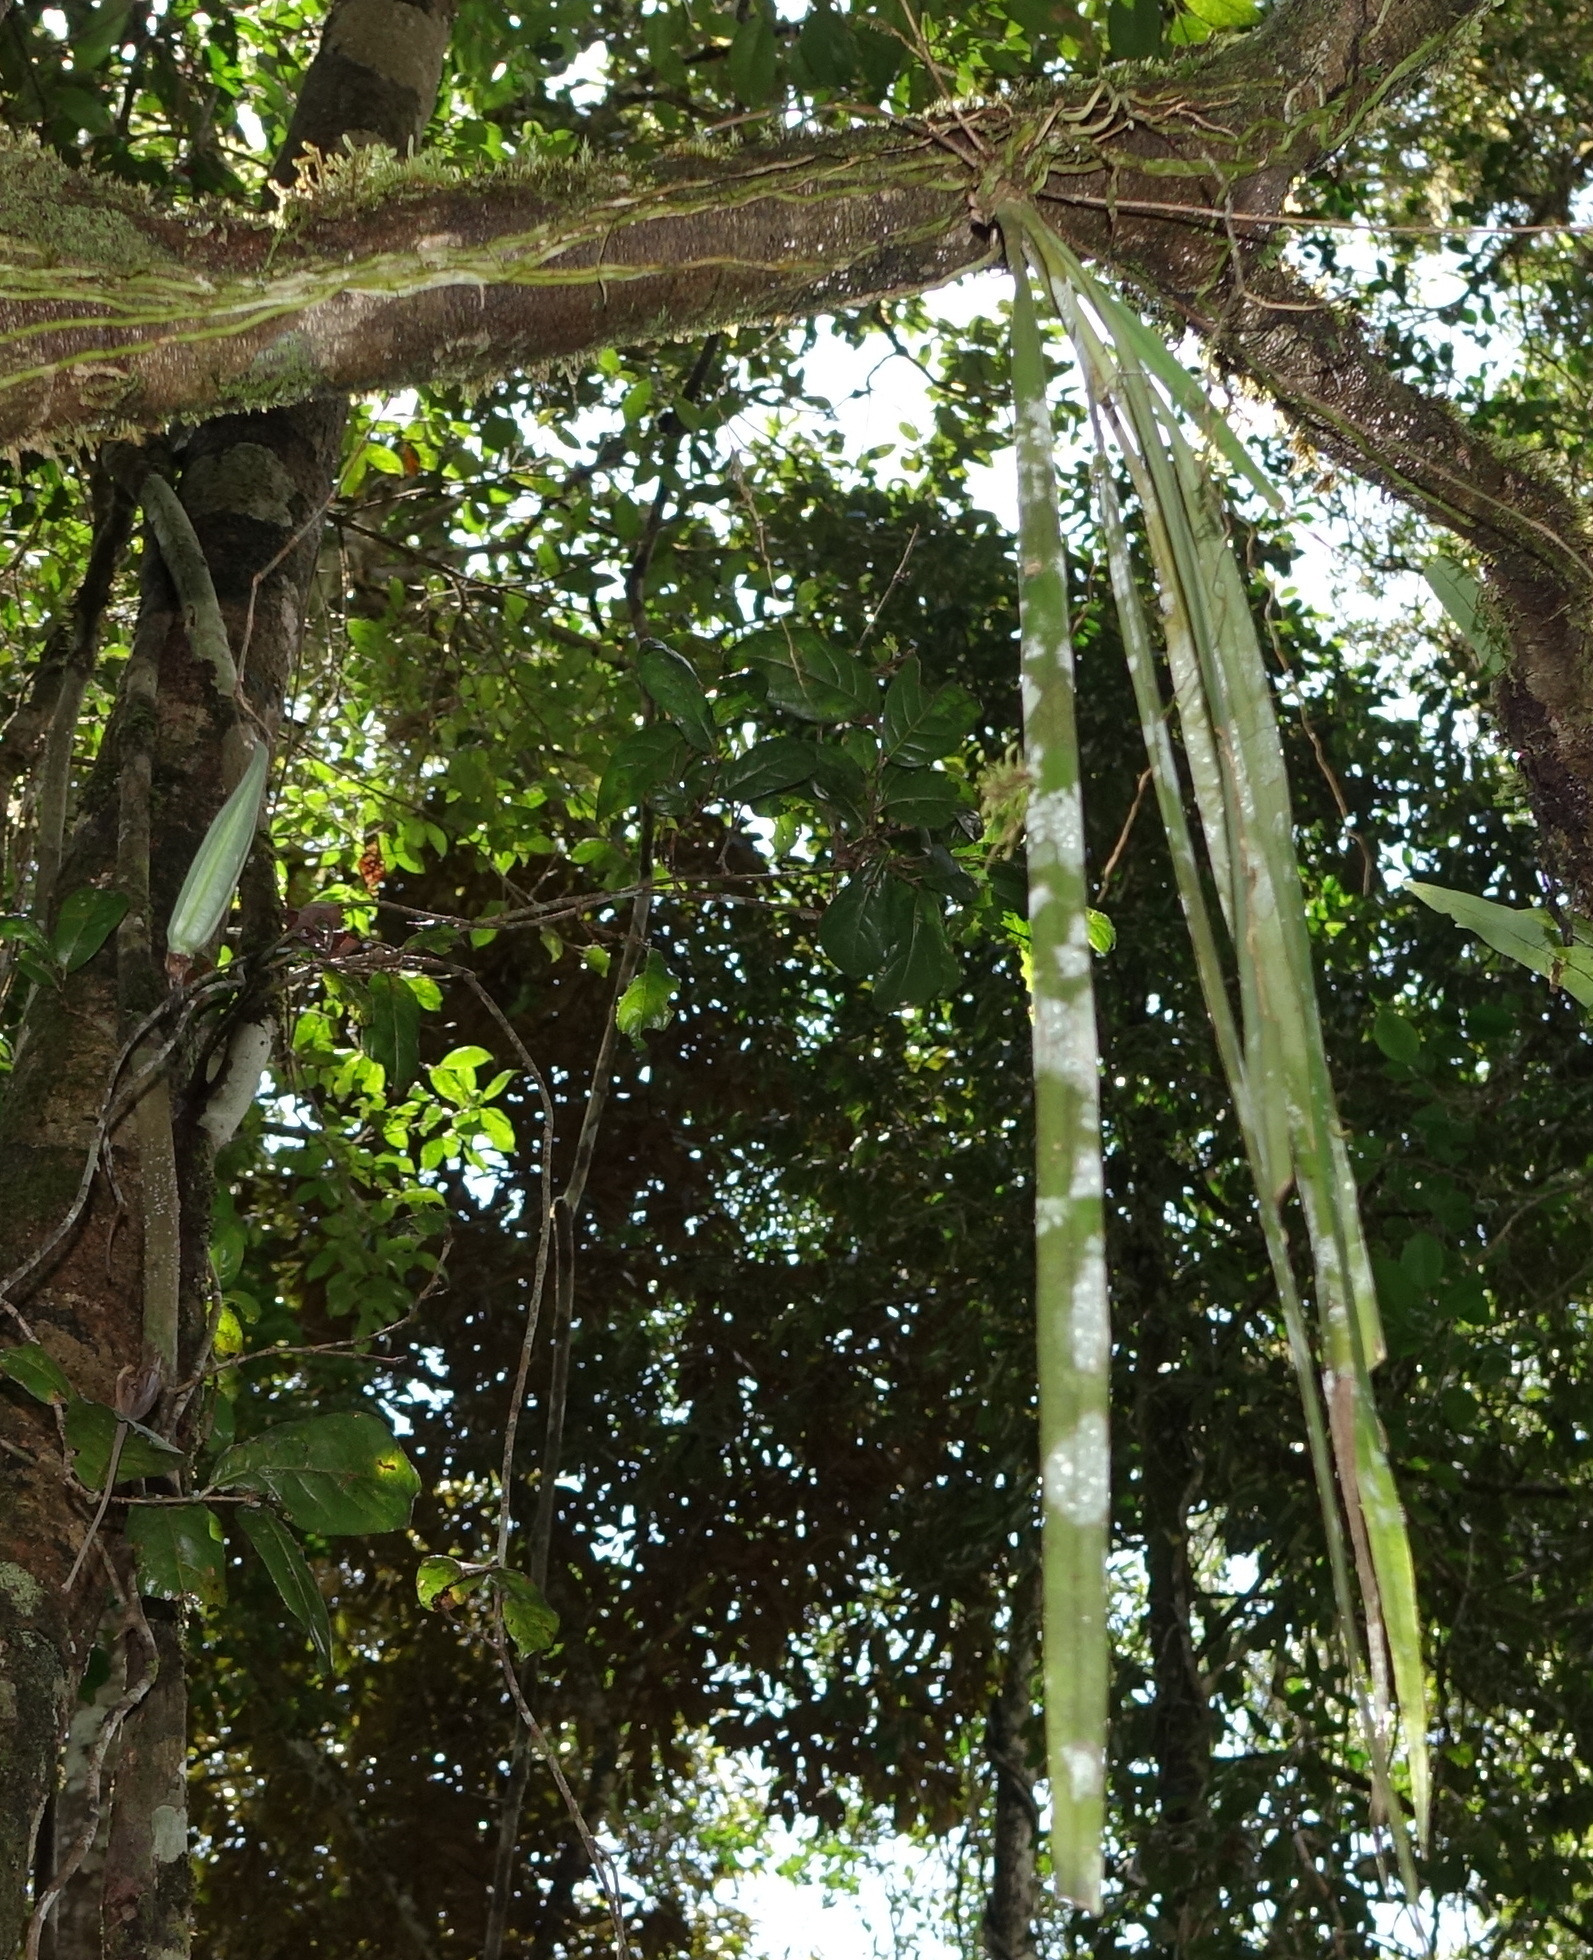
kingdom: Plantae
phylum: Tracheophyta
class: Liliopsida
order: Asparagales
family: Orchidaceae
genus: Aeranthes
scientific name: Aeranthes peyrotii
